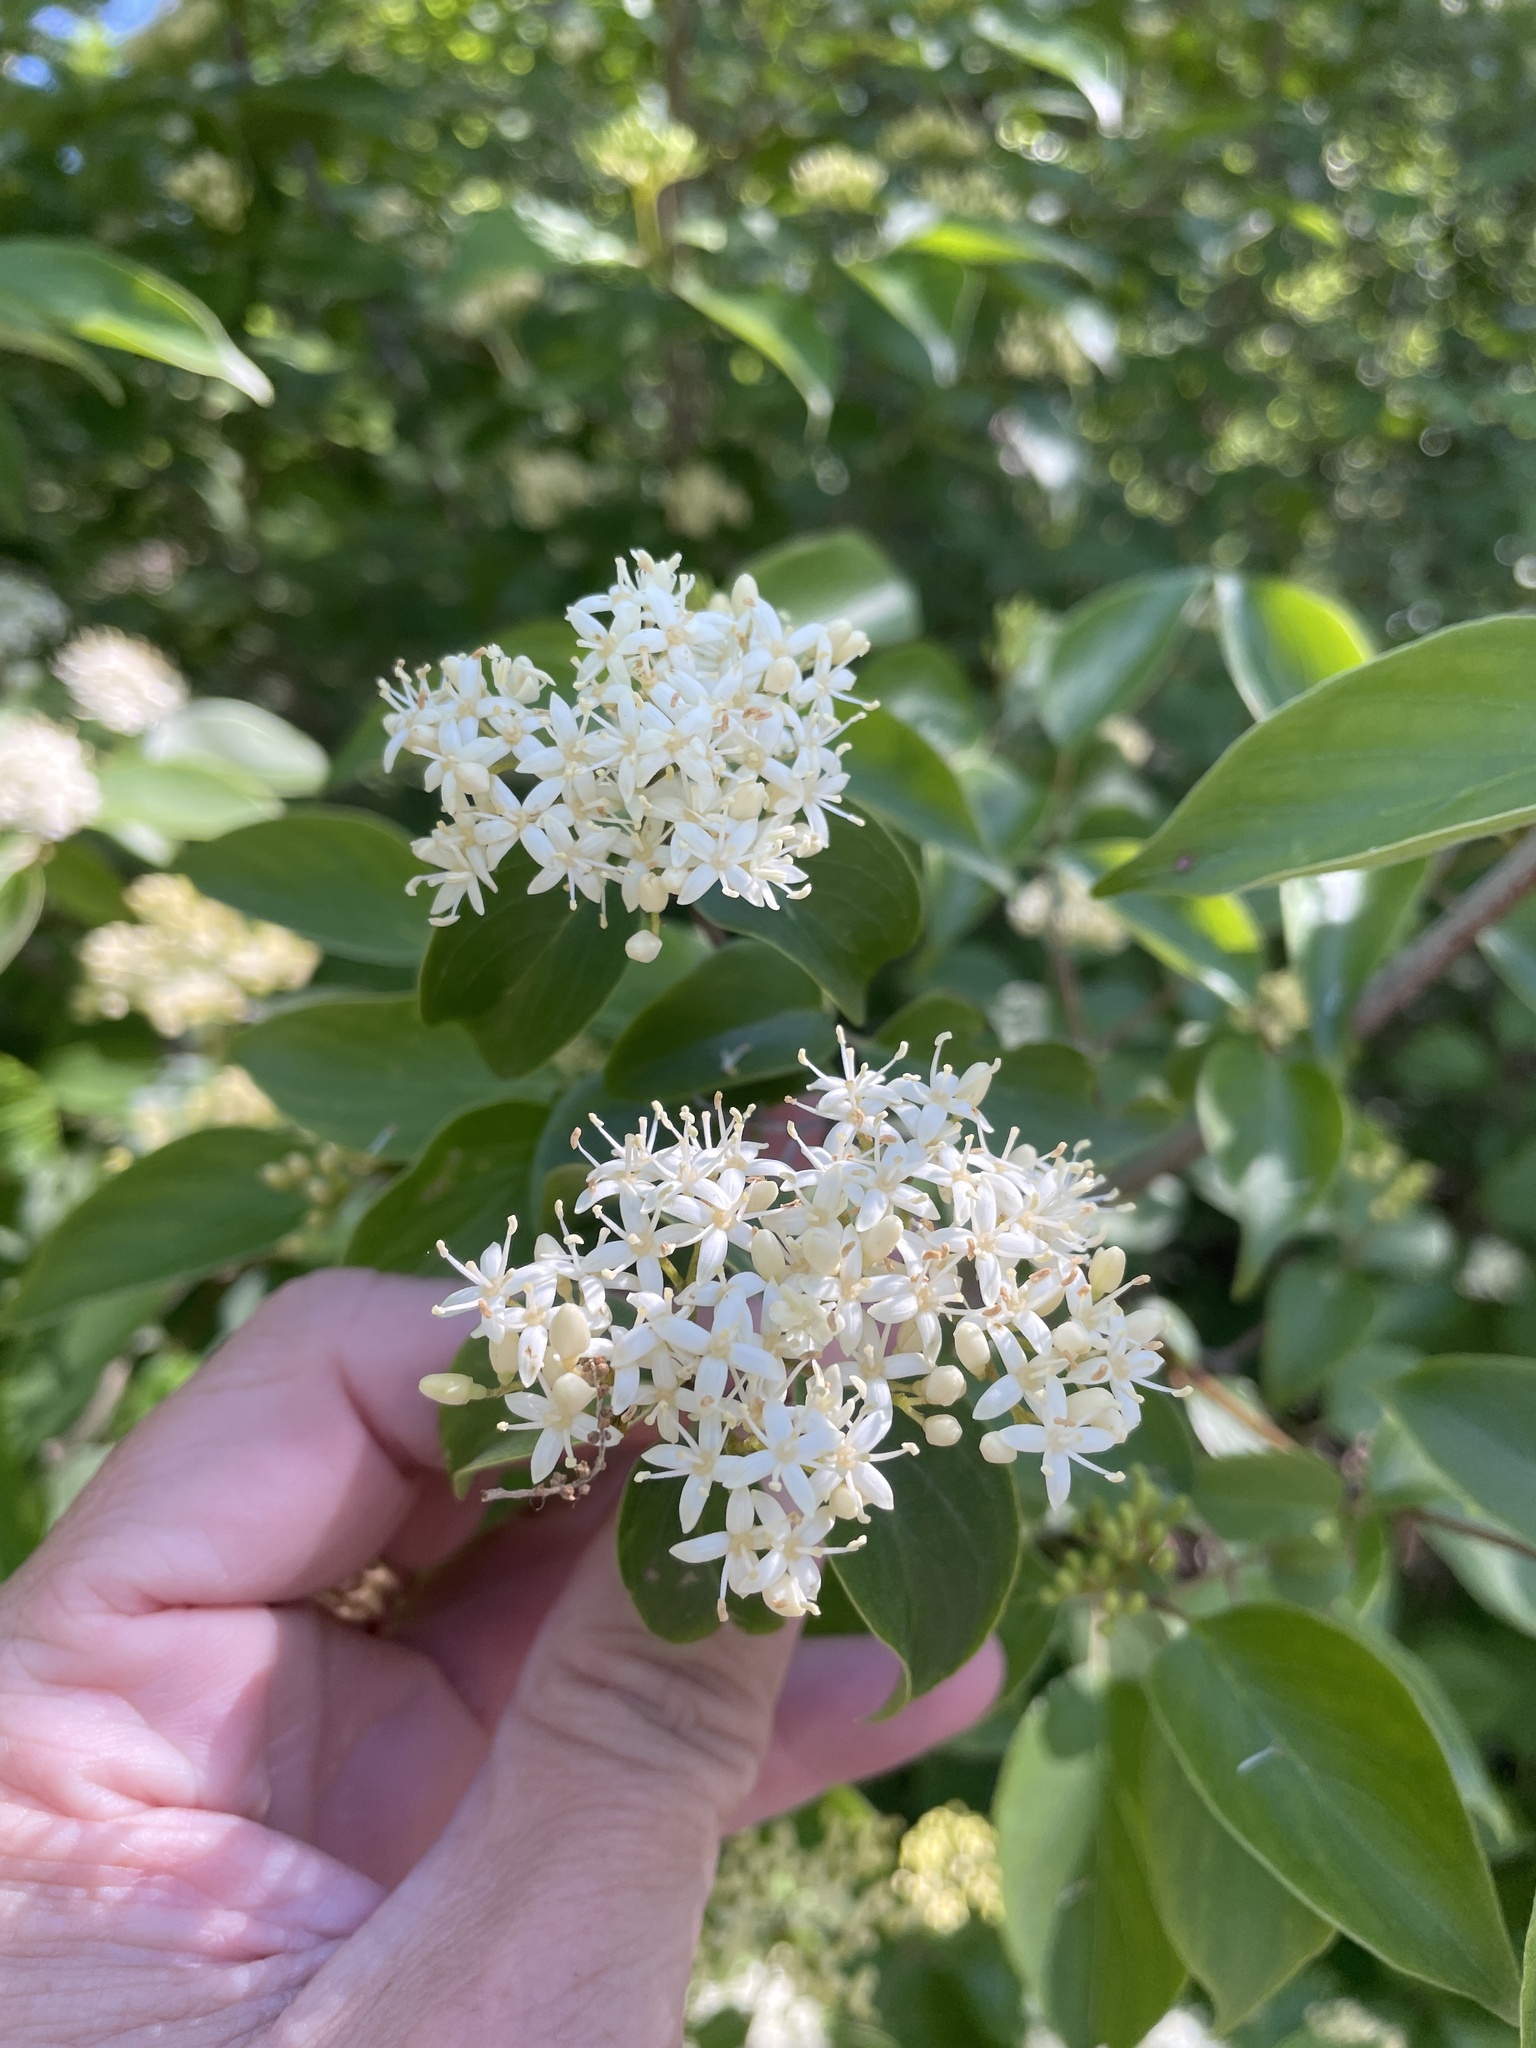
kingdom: Plantae
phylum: Tracheophyta
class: Magnoliopsida
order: Cornales
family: Cornaceae
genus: Cornus
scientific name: Cornus drummondii
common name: Rough-leaf dogwood
